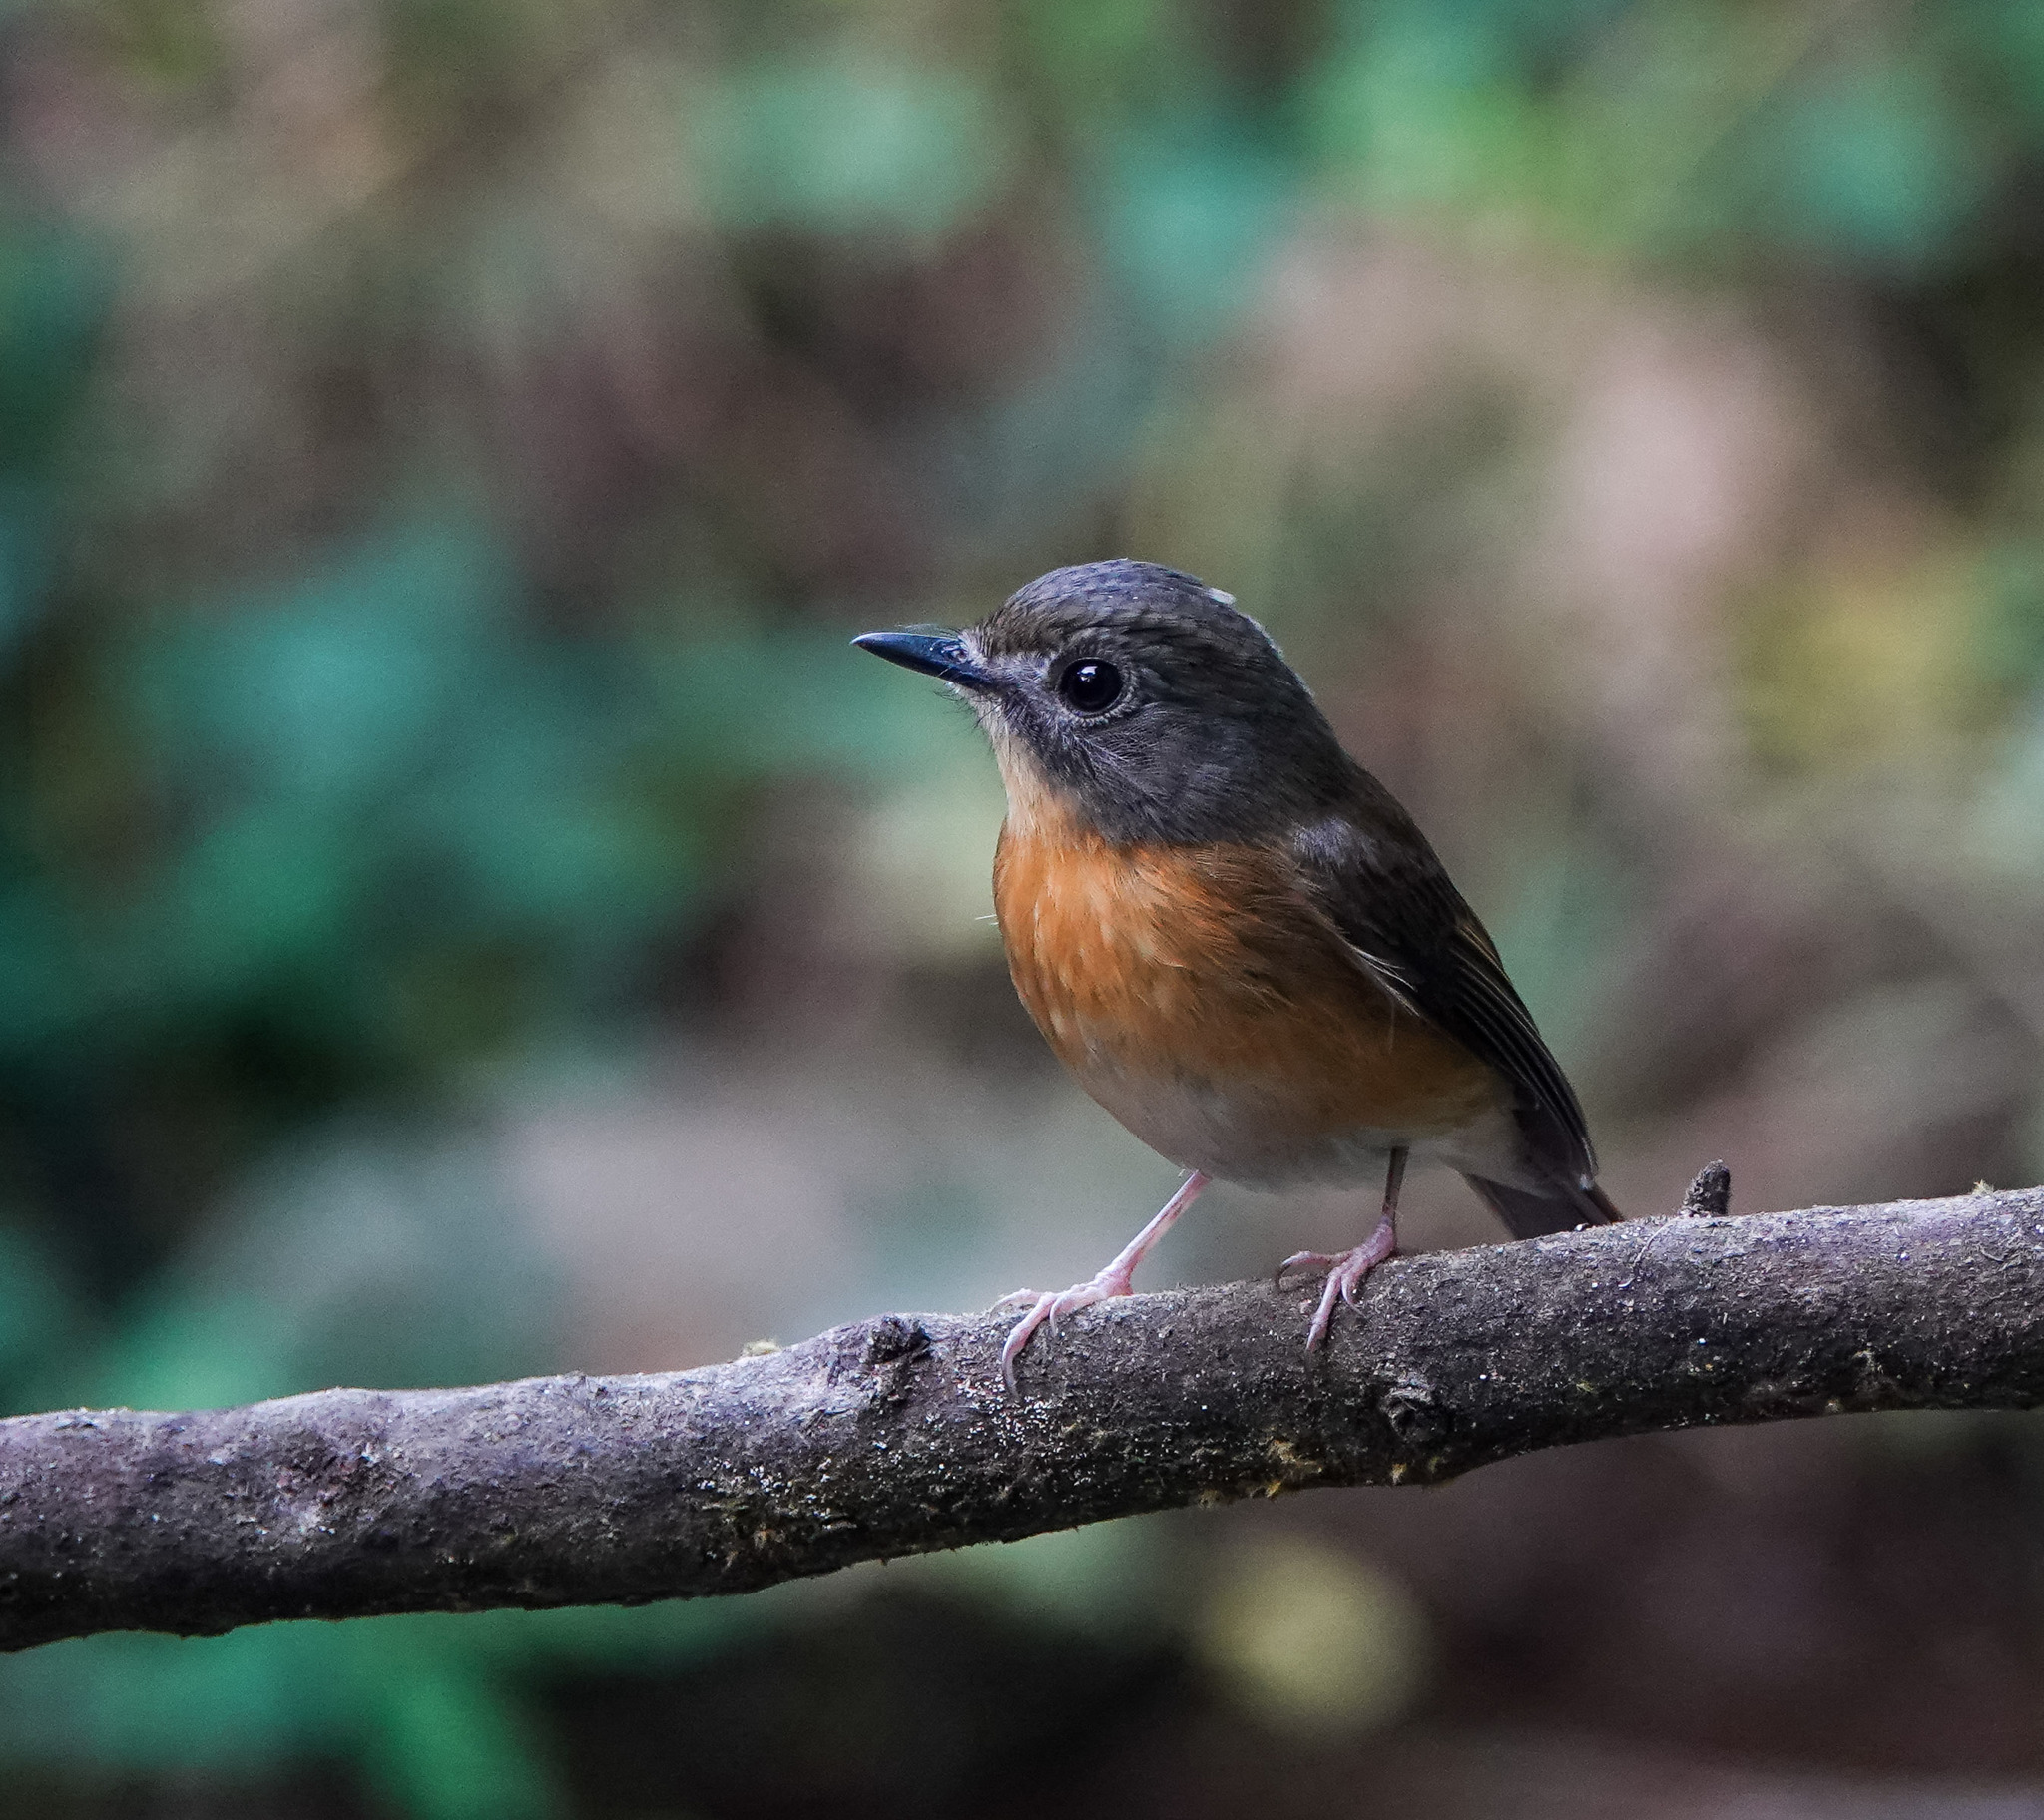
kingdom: Animalia
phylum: Chordata
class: Aves
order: Passeriformes
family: Muscicapidae
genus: Cyornis
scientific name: Cyornis poliogenys
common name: Pale-chinned blue flycatcher
